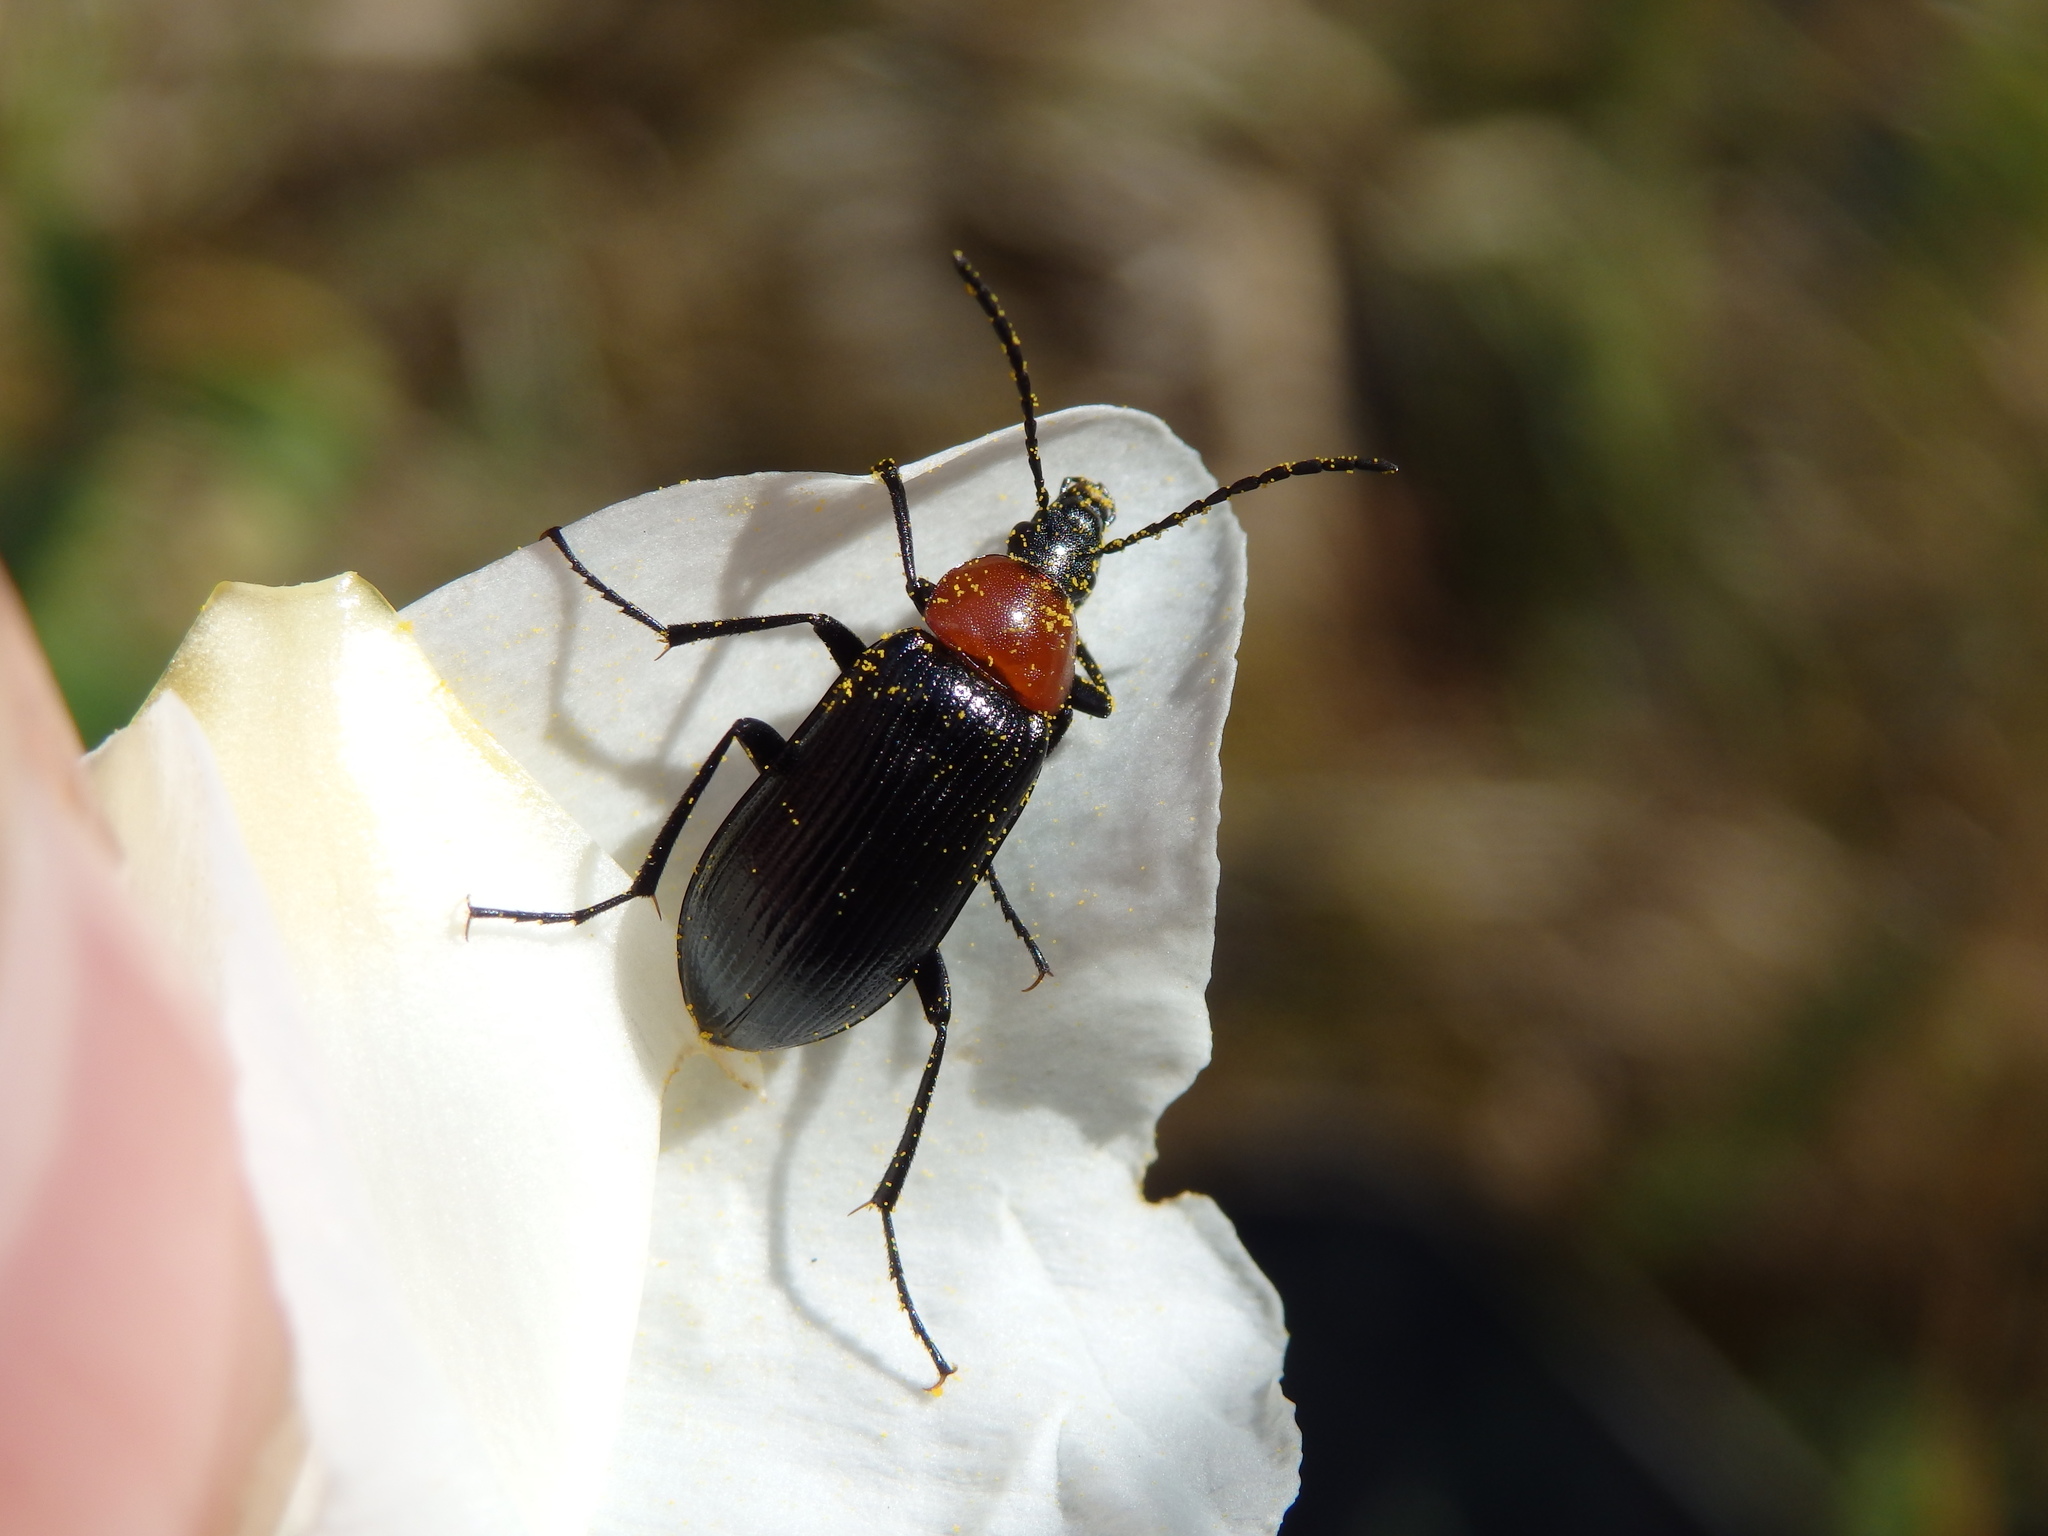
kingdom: Animalia
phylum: Arthropoda
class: Insecta
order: Coleoptera
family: Tenebrionidae
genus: Heliotaurus
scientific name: Heliotaurus ruficollis
